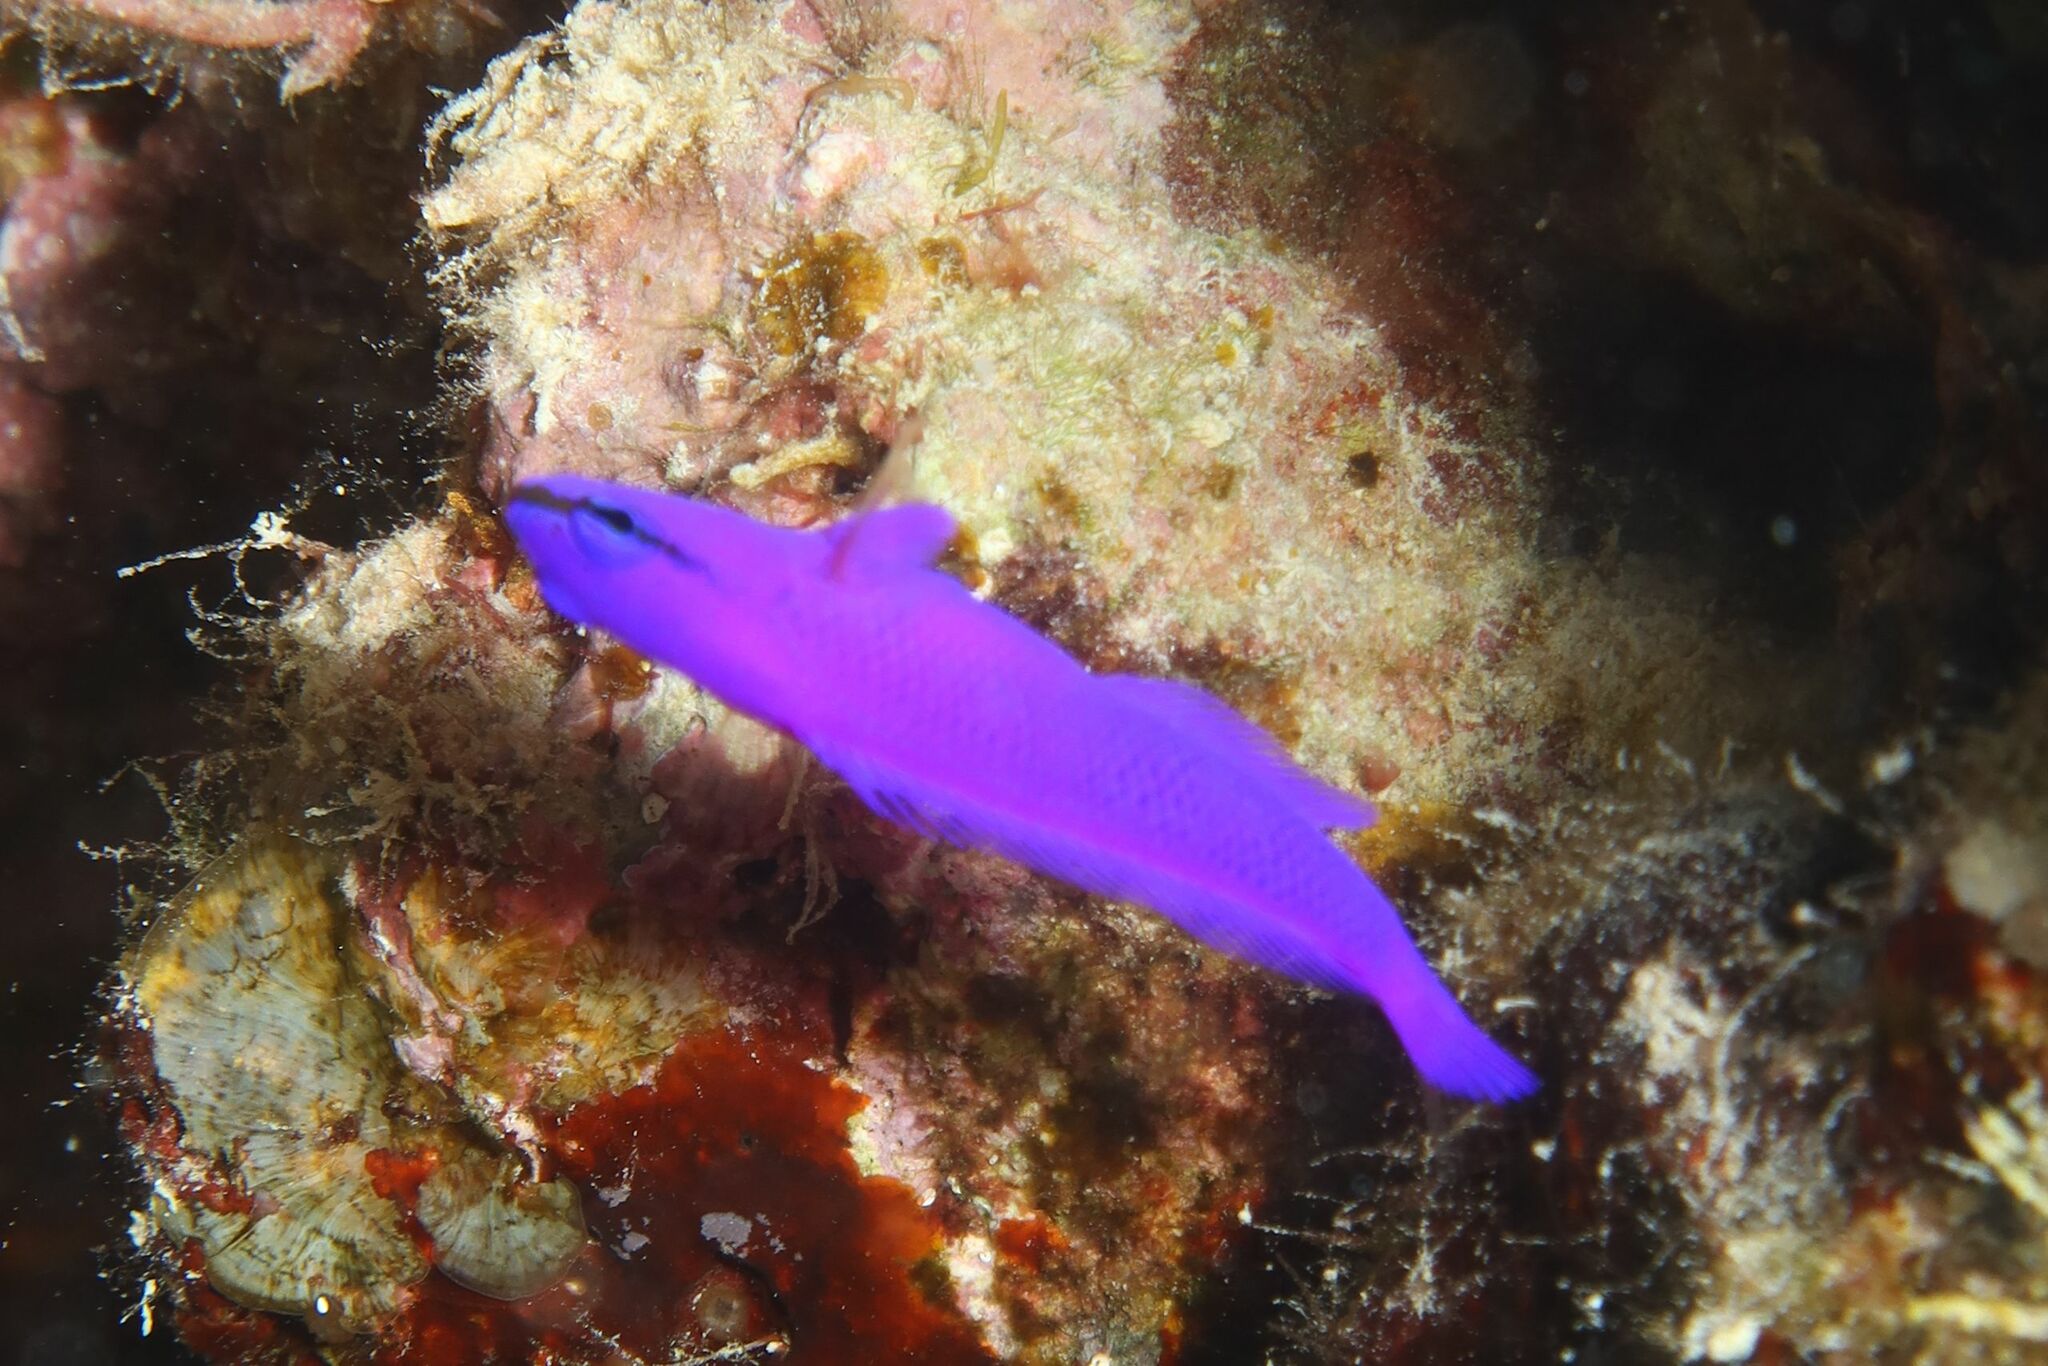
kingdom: Animalia
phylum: Chordata
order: Perciformes
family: Pseudochromidae
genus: Pseudochromis
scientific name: Pseudochromis fridmani
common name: Orchid dottyback
